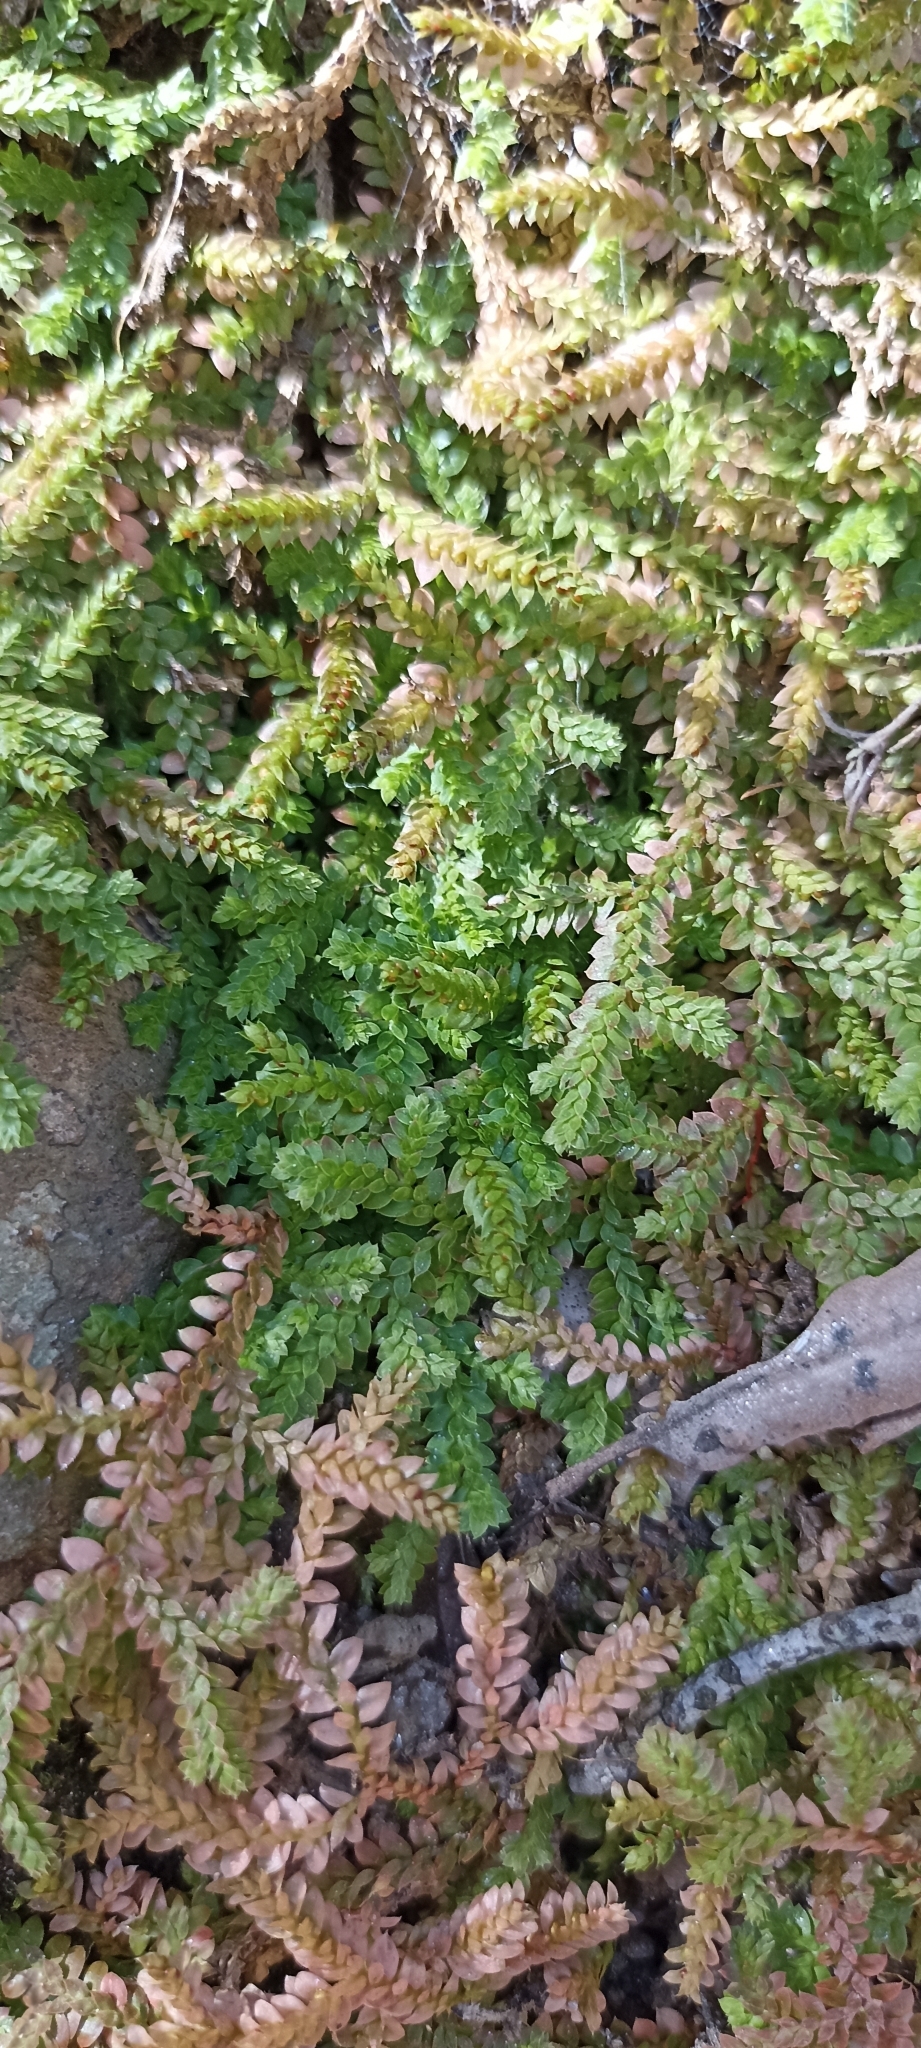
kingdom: Plantae
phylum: Tracheophyta
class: Lycopodiopsida
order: Selaginellales
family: Selaginellaceae
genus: Selaginella
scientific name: Selaginella denticulata
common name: Toothed-leaved clubmoss
